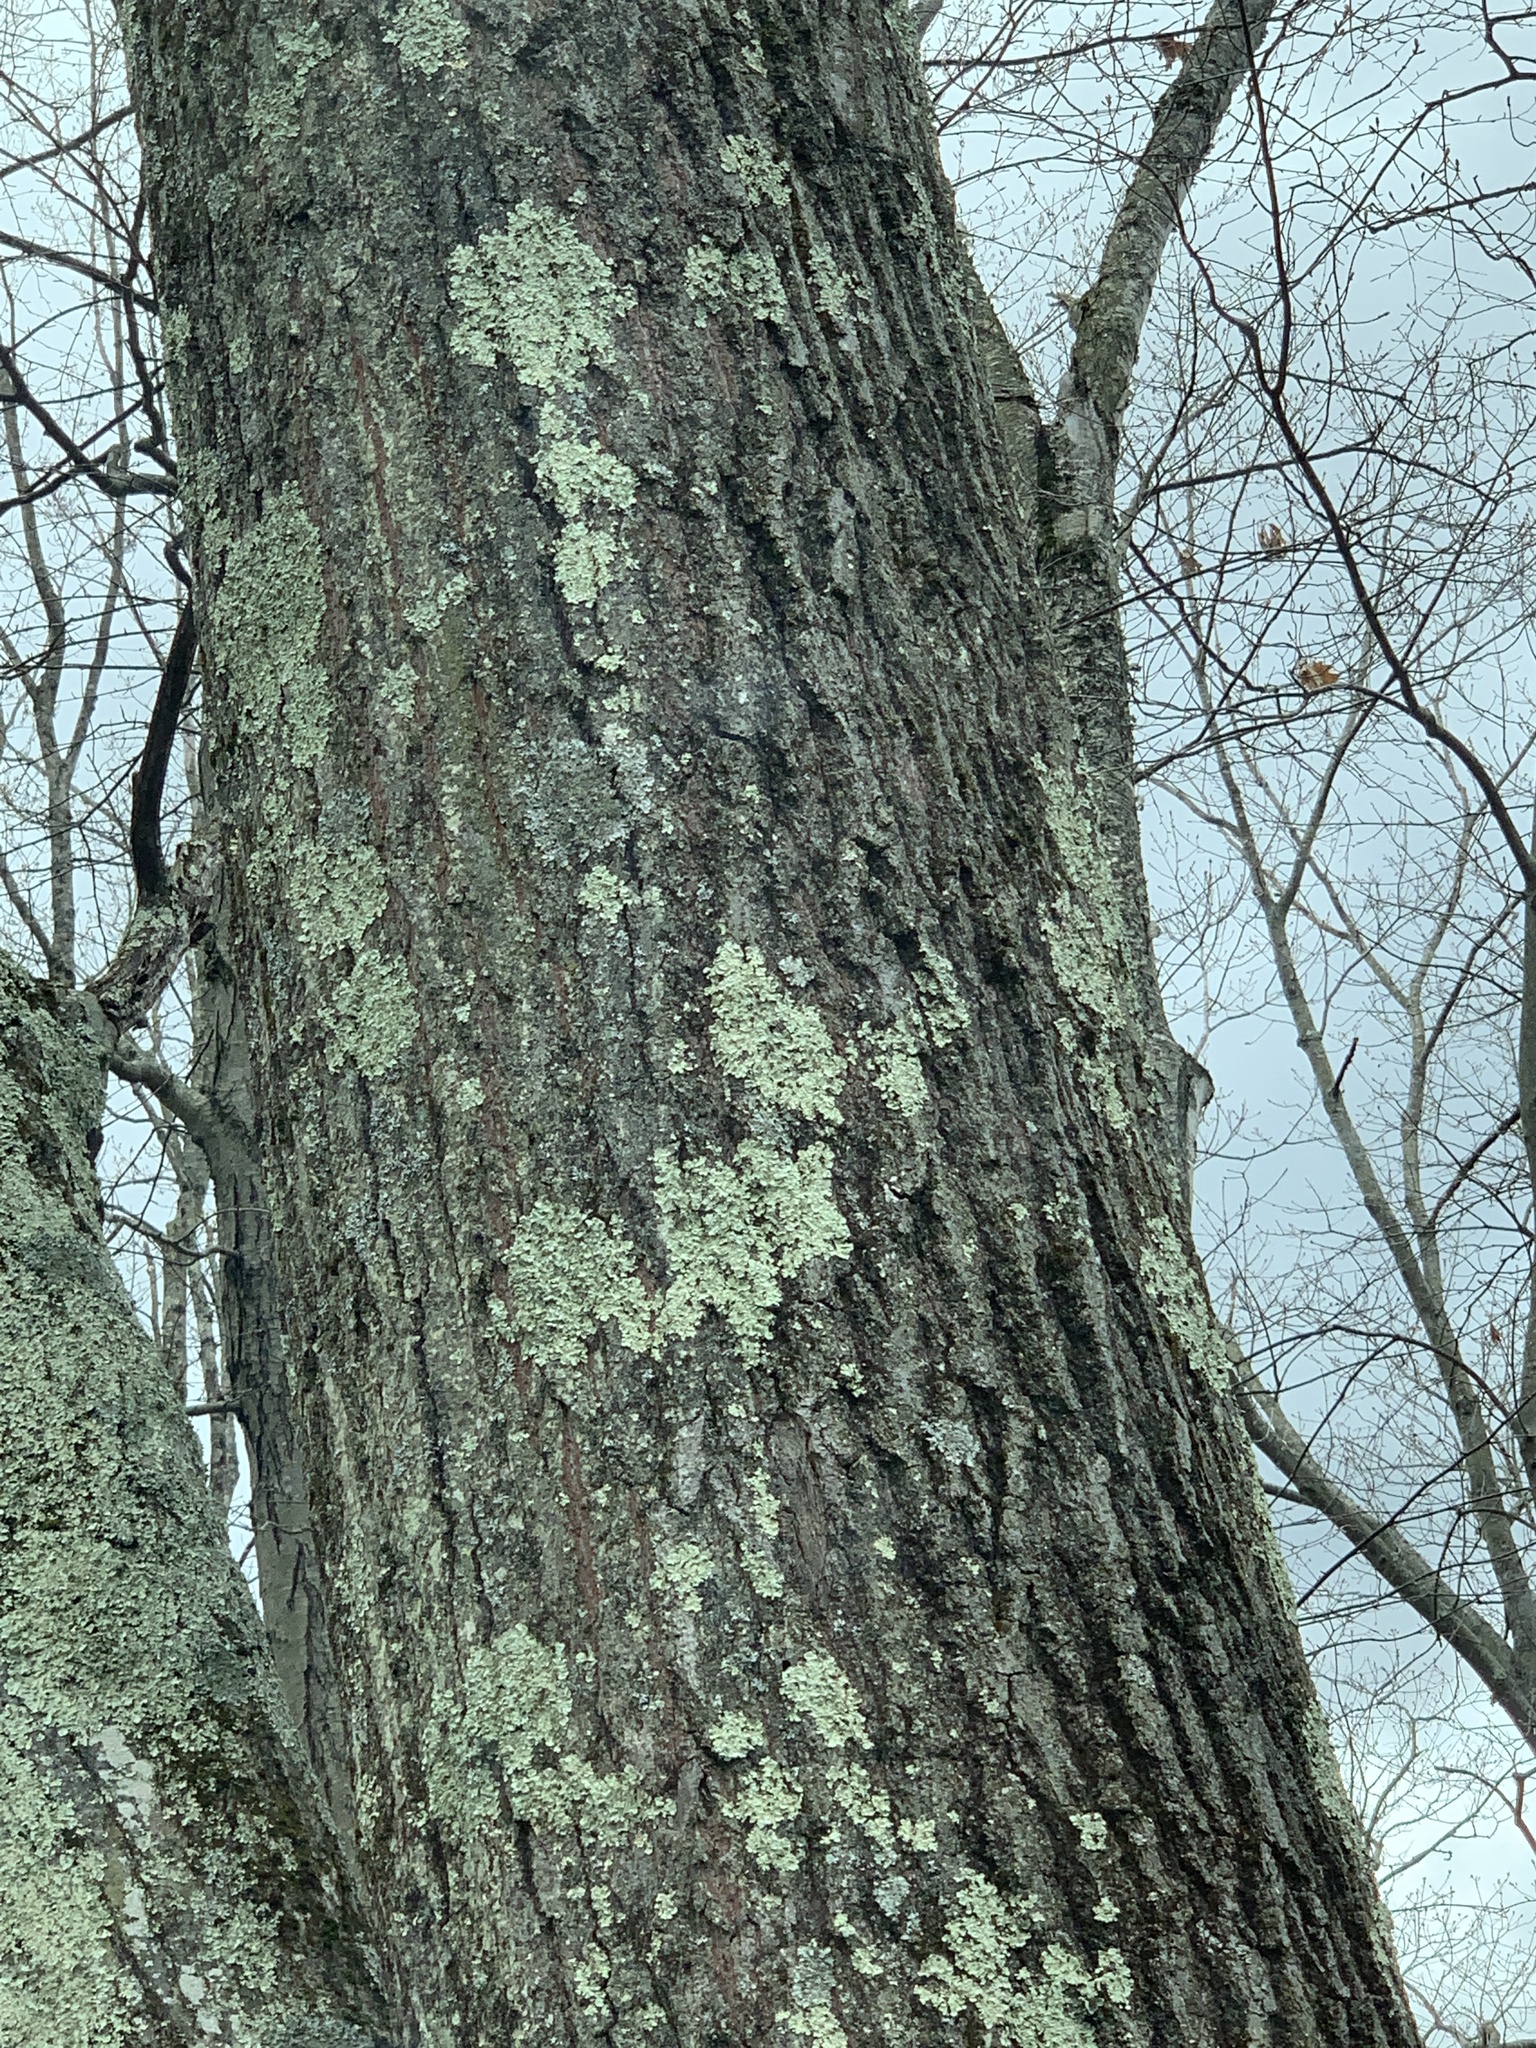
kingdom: Plantae
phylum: Tracheophyta
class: Magnoliopsida
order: Fagales
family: Fagaceae
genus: Quercus
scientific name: Quercus rubra
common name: Red oak
